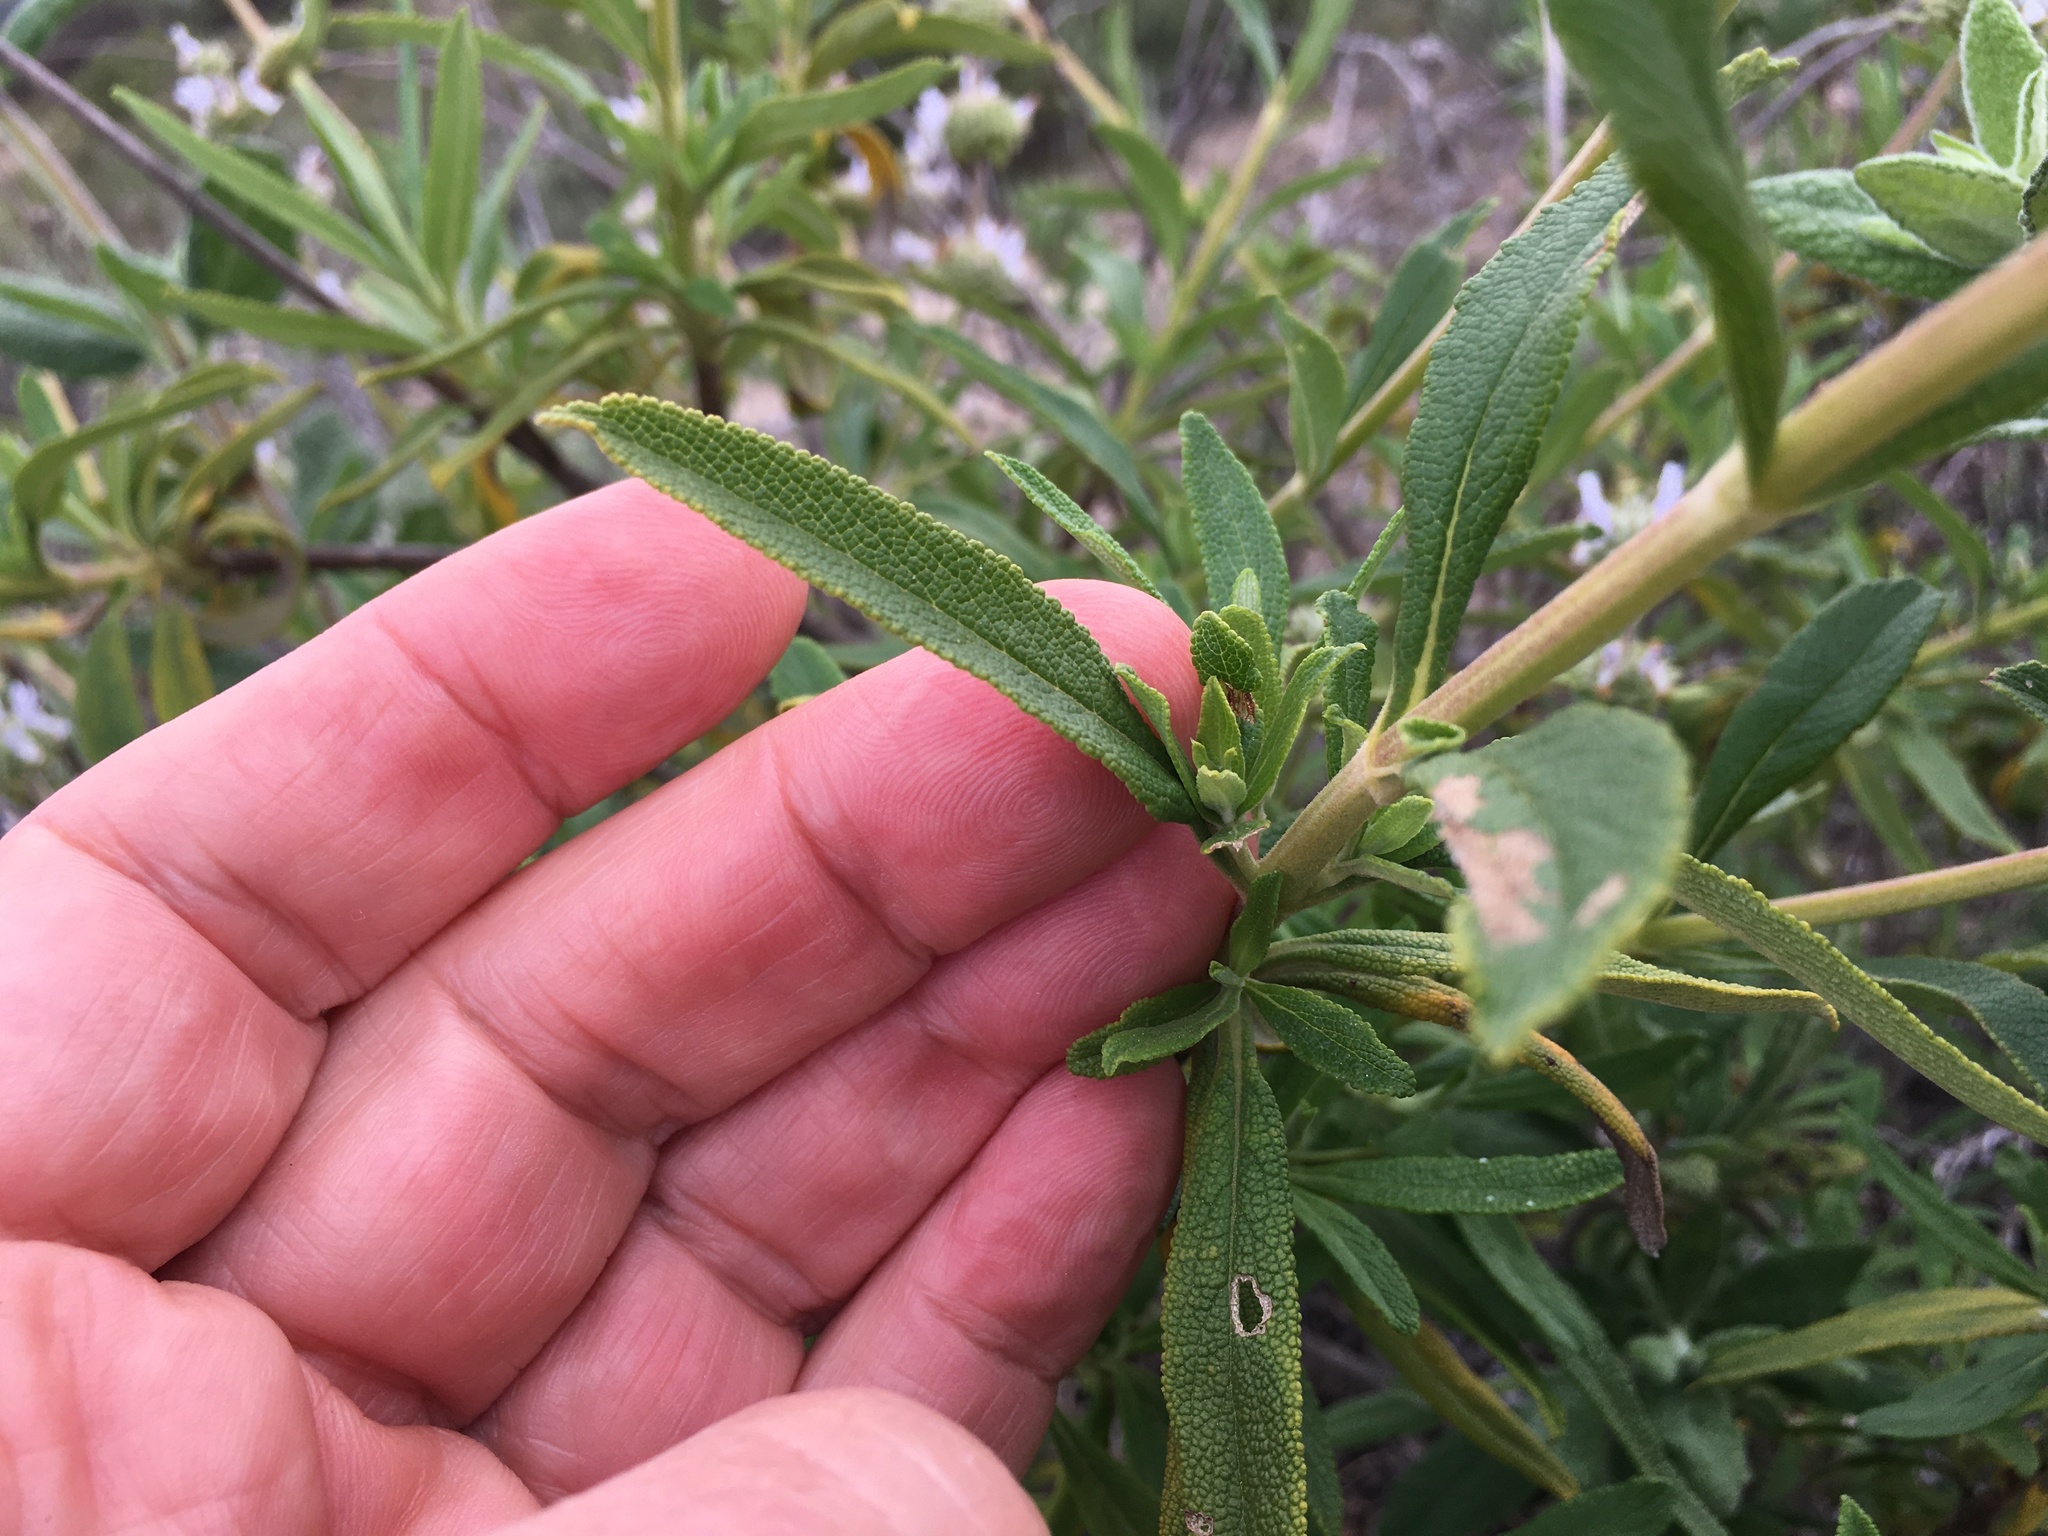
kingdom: Plantae
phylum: Tracheophyta
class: Magnoliopsida
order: Lamiales
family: Lamiaceae
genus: Salvia
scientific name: Salvia mellifera
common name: Black sage
